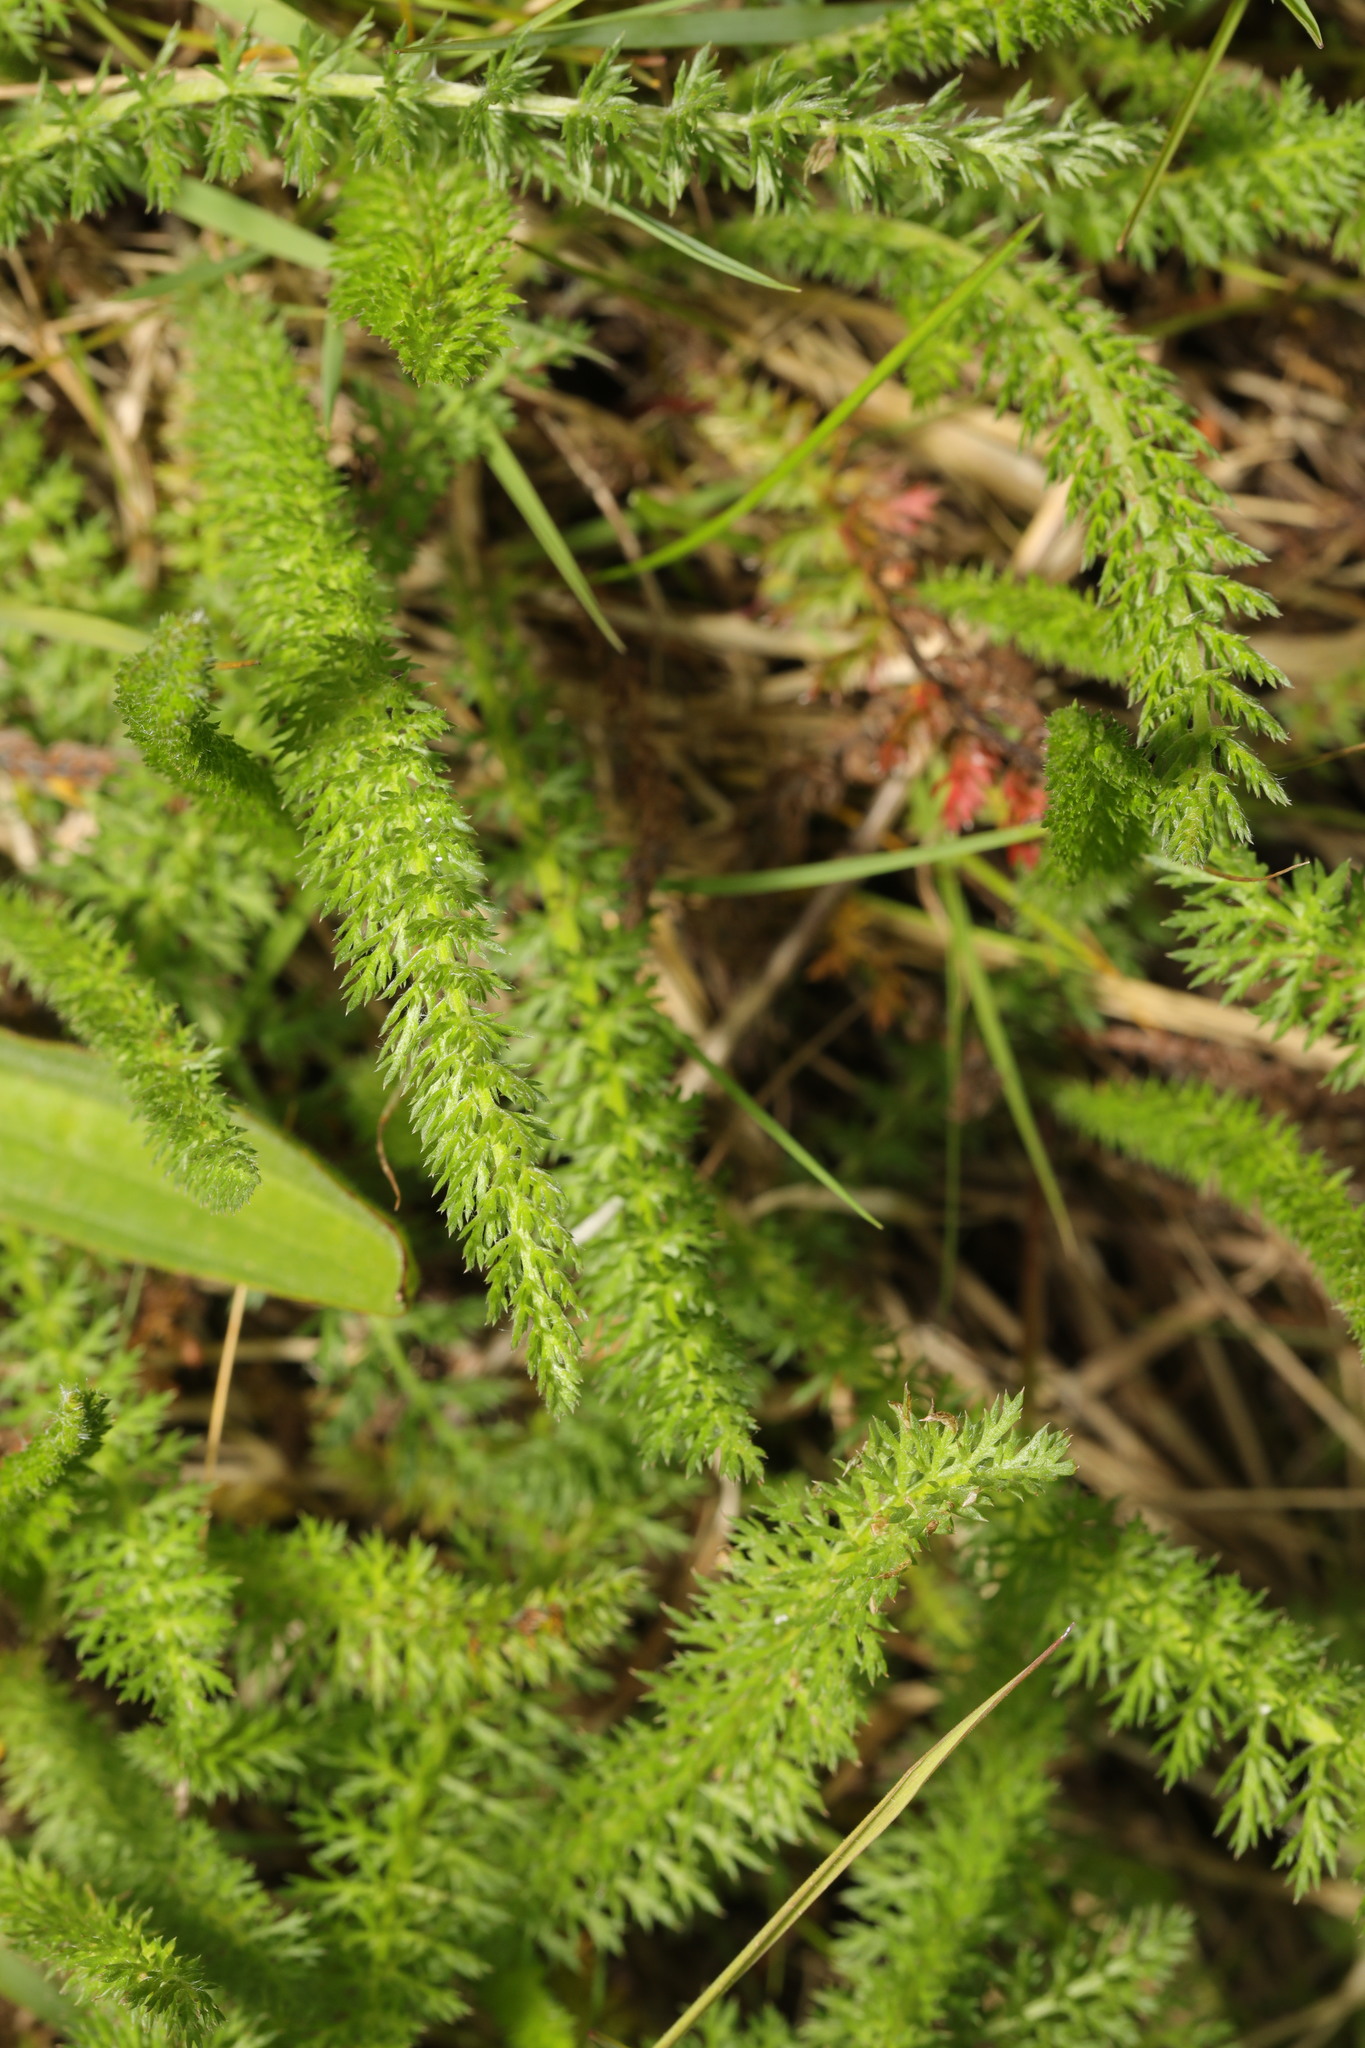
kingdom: Plantae
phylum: Tracheophyta
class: Magnoliopsida
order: Asterales
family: Asteraceae
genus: Achillea
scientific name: Achillea millefolium
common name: Yarrow
